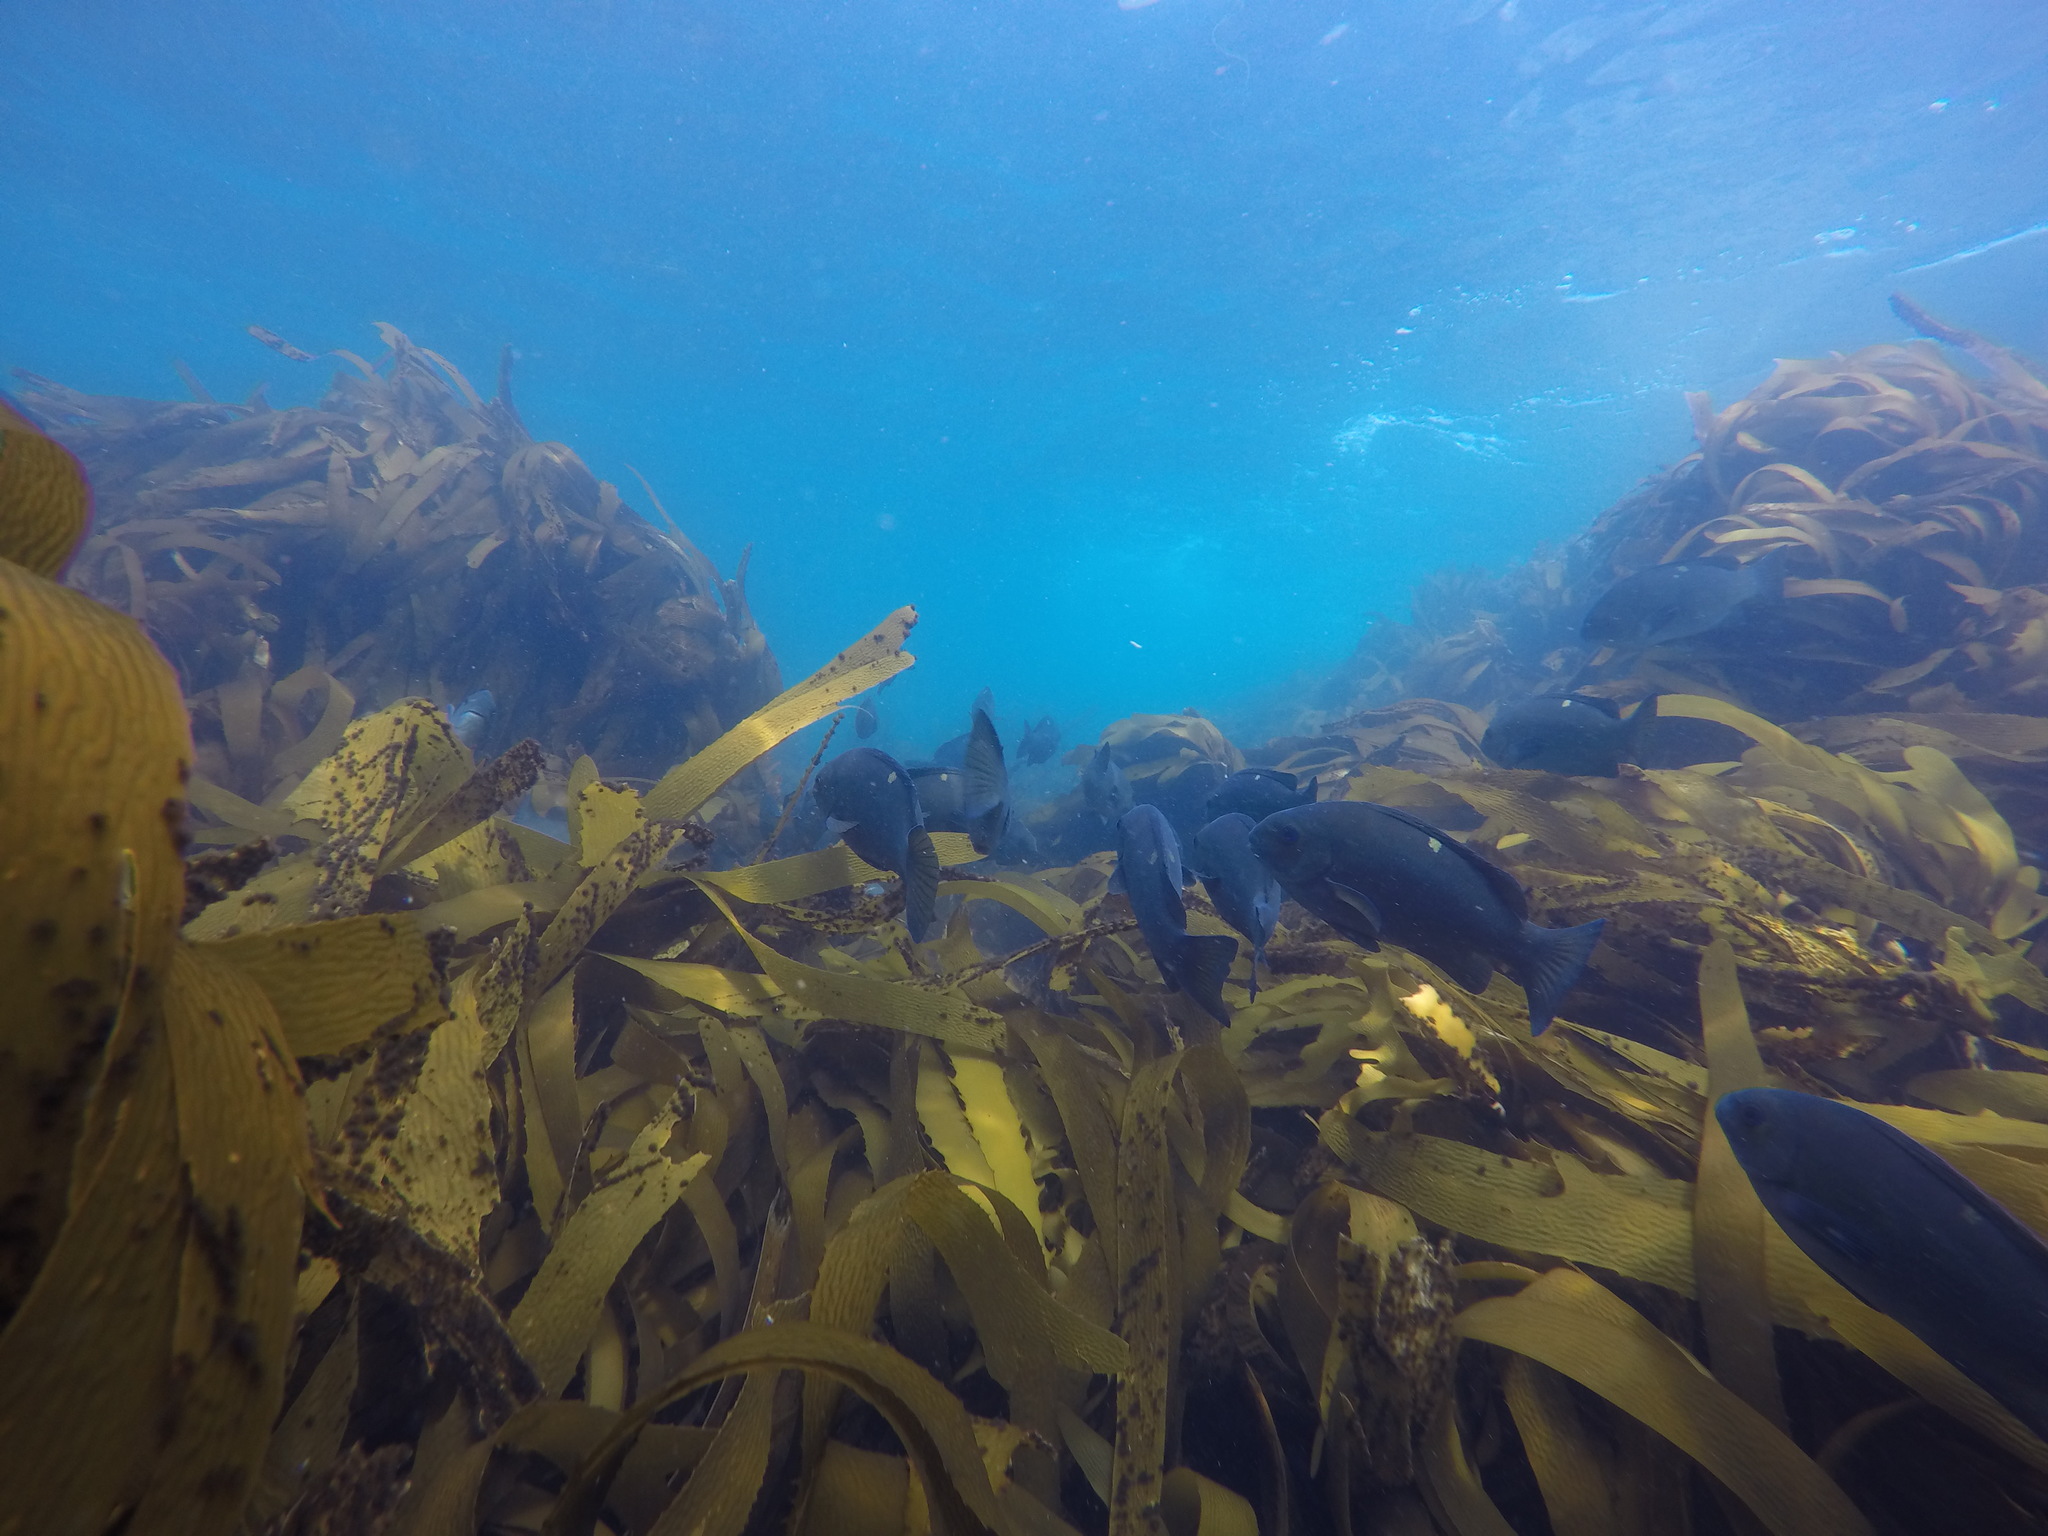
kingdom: Animalia
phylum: Chordata
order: Perciformes
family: Kyphosidae
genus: Girella
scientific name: Girella nigricans
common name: Opaleye
